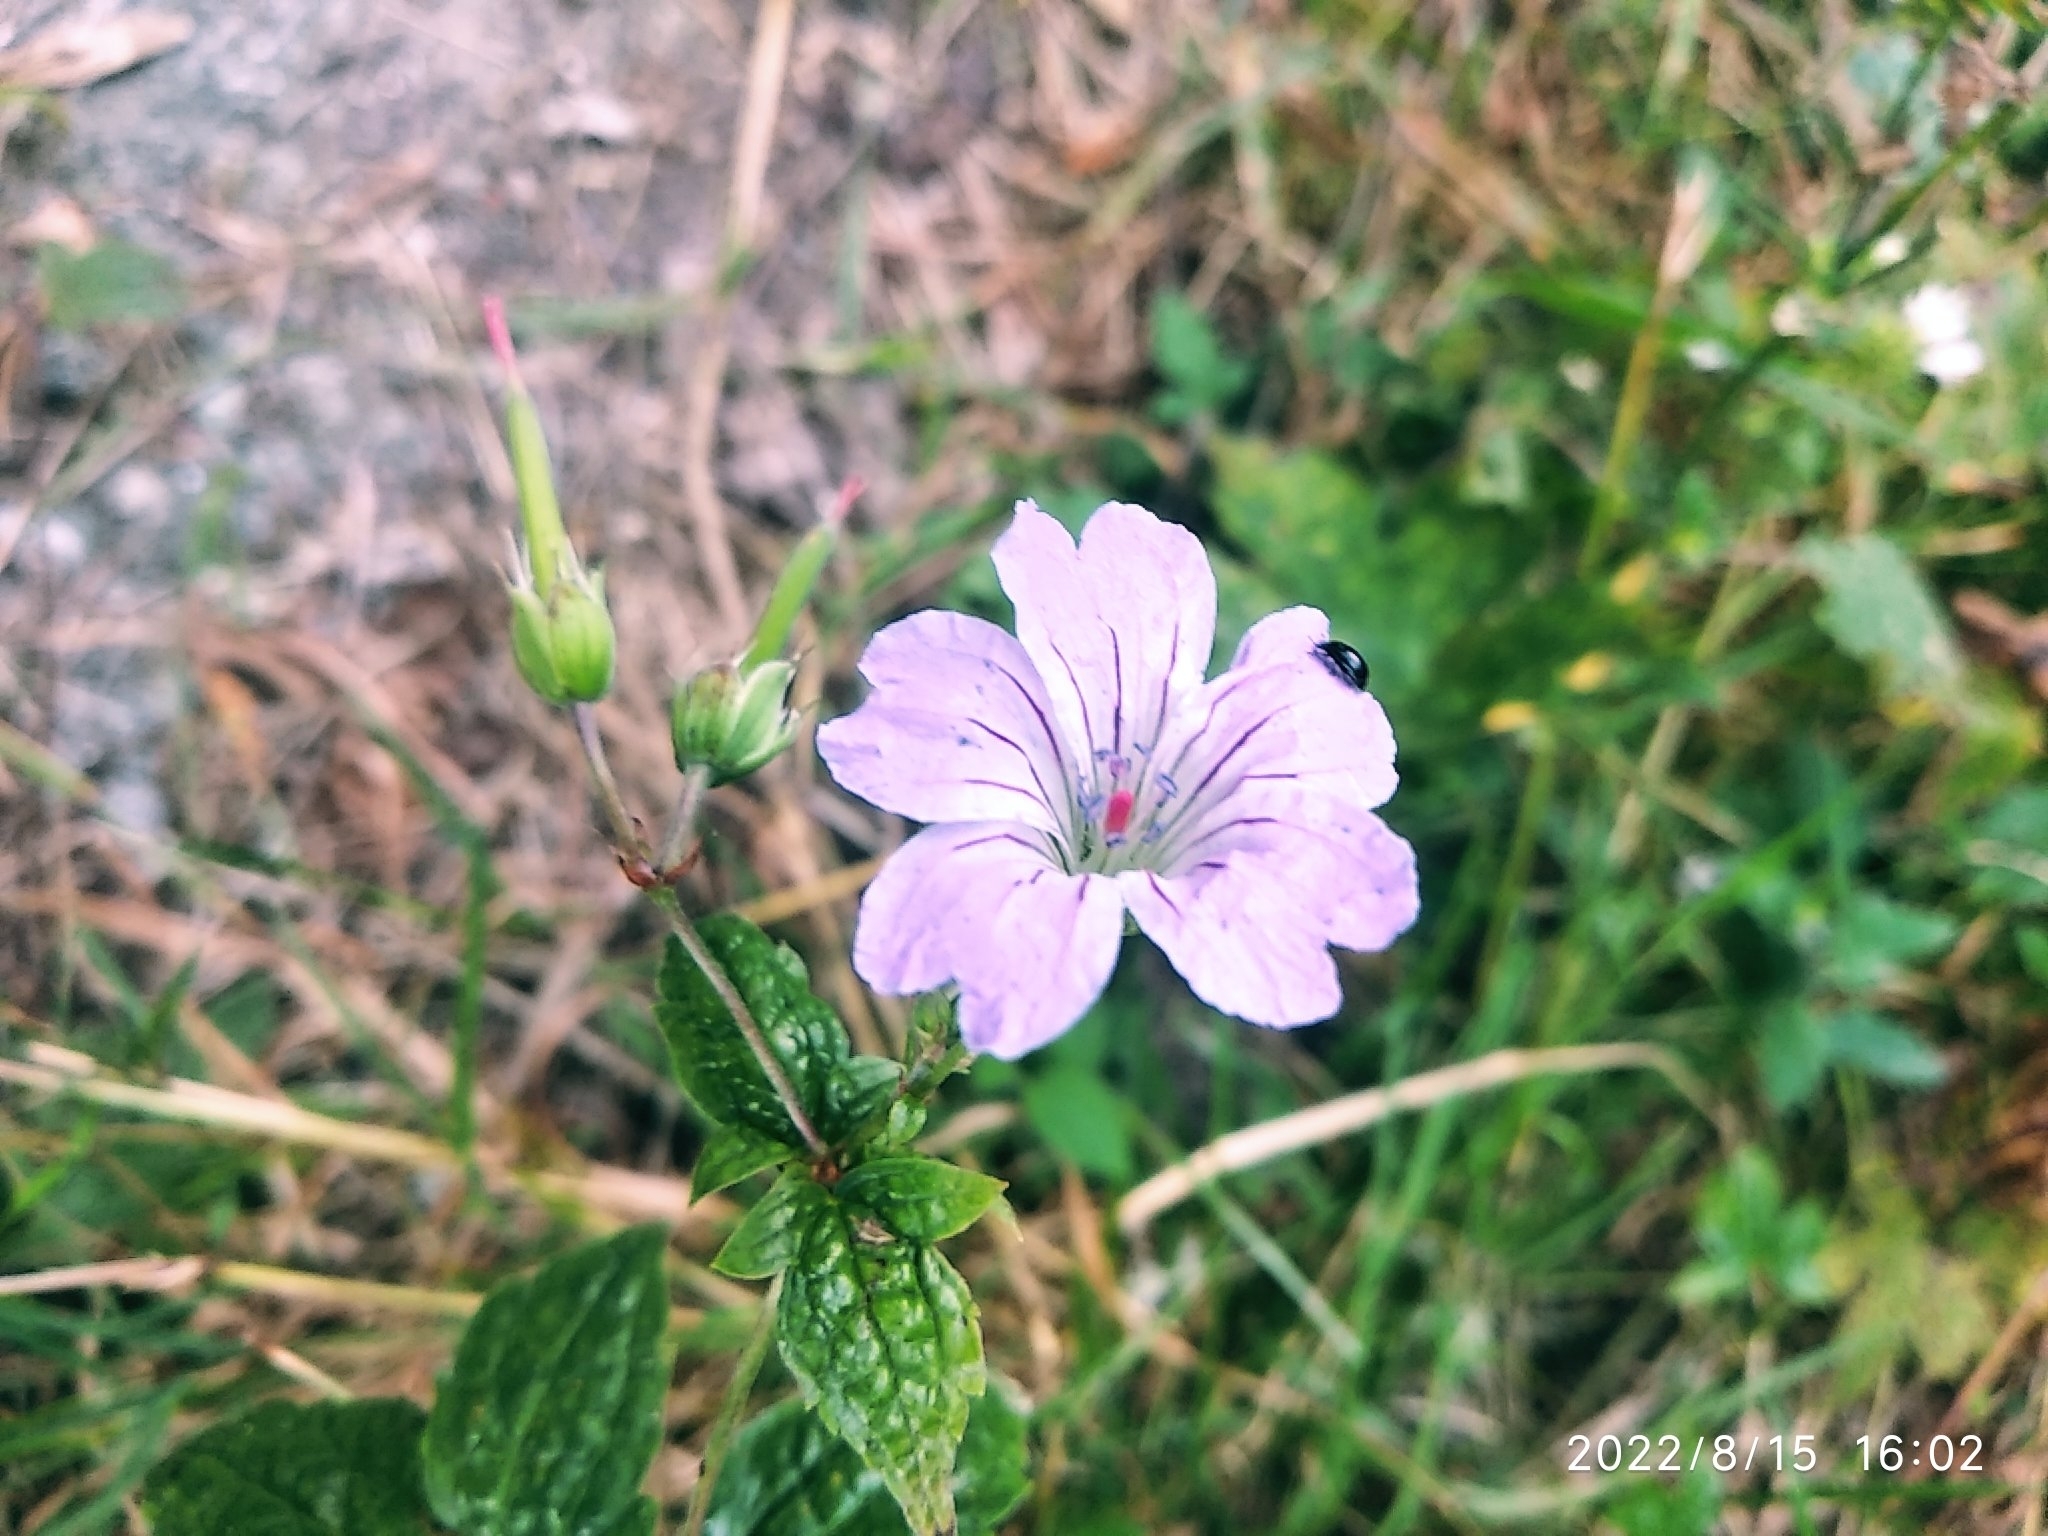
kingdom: Plantae
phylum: Tracheophyta
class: Magnoliopsida
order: Geraniales
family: Geraniaceae
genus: Geranium
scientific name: Geranium nodosum
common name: Knotted crane's-bill
